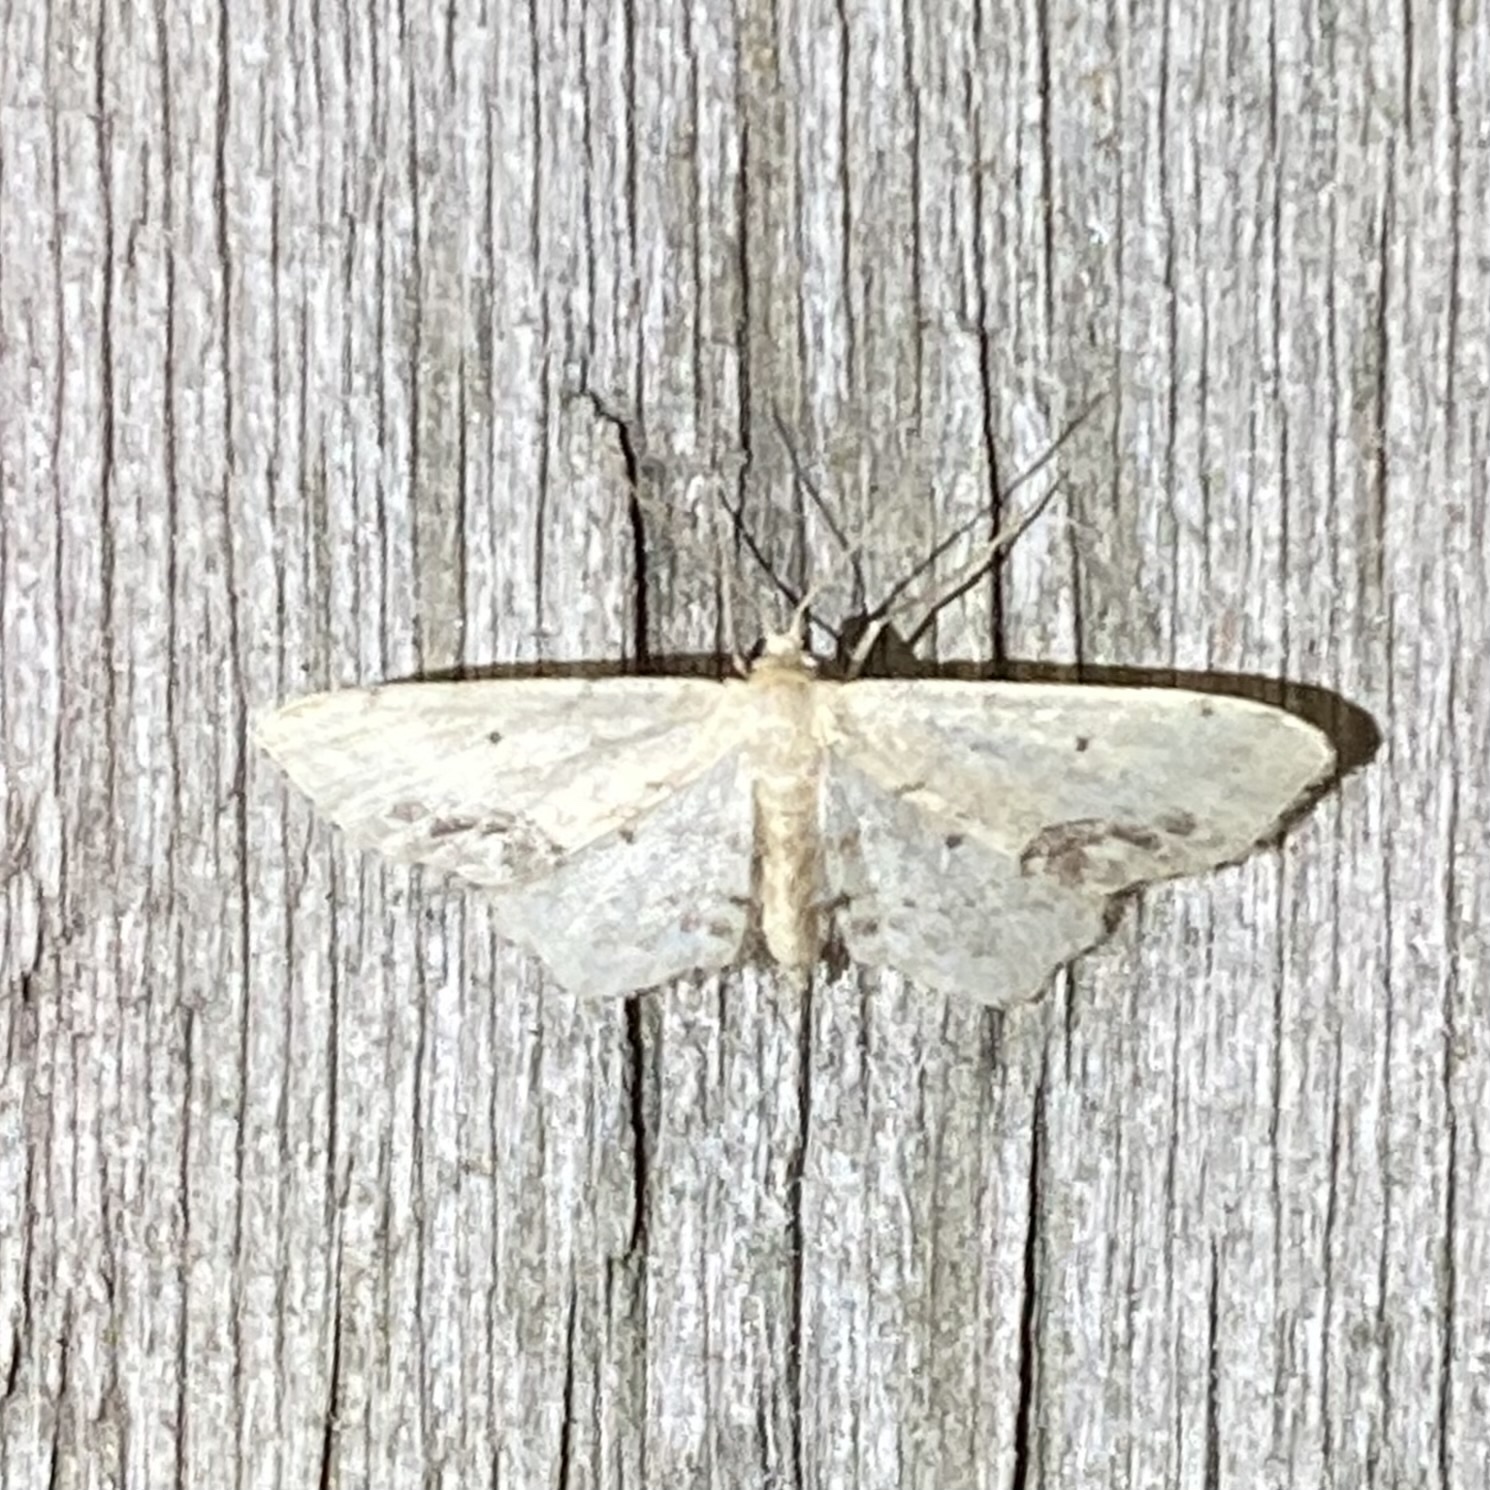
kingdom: Animalia
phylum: Arthropoda
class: Insecta
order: Lepidoptera
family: Geometridae
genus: Idaea
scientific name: Idaea dimidiata
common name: Single-dotted wave
